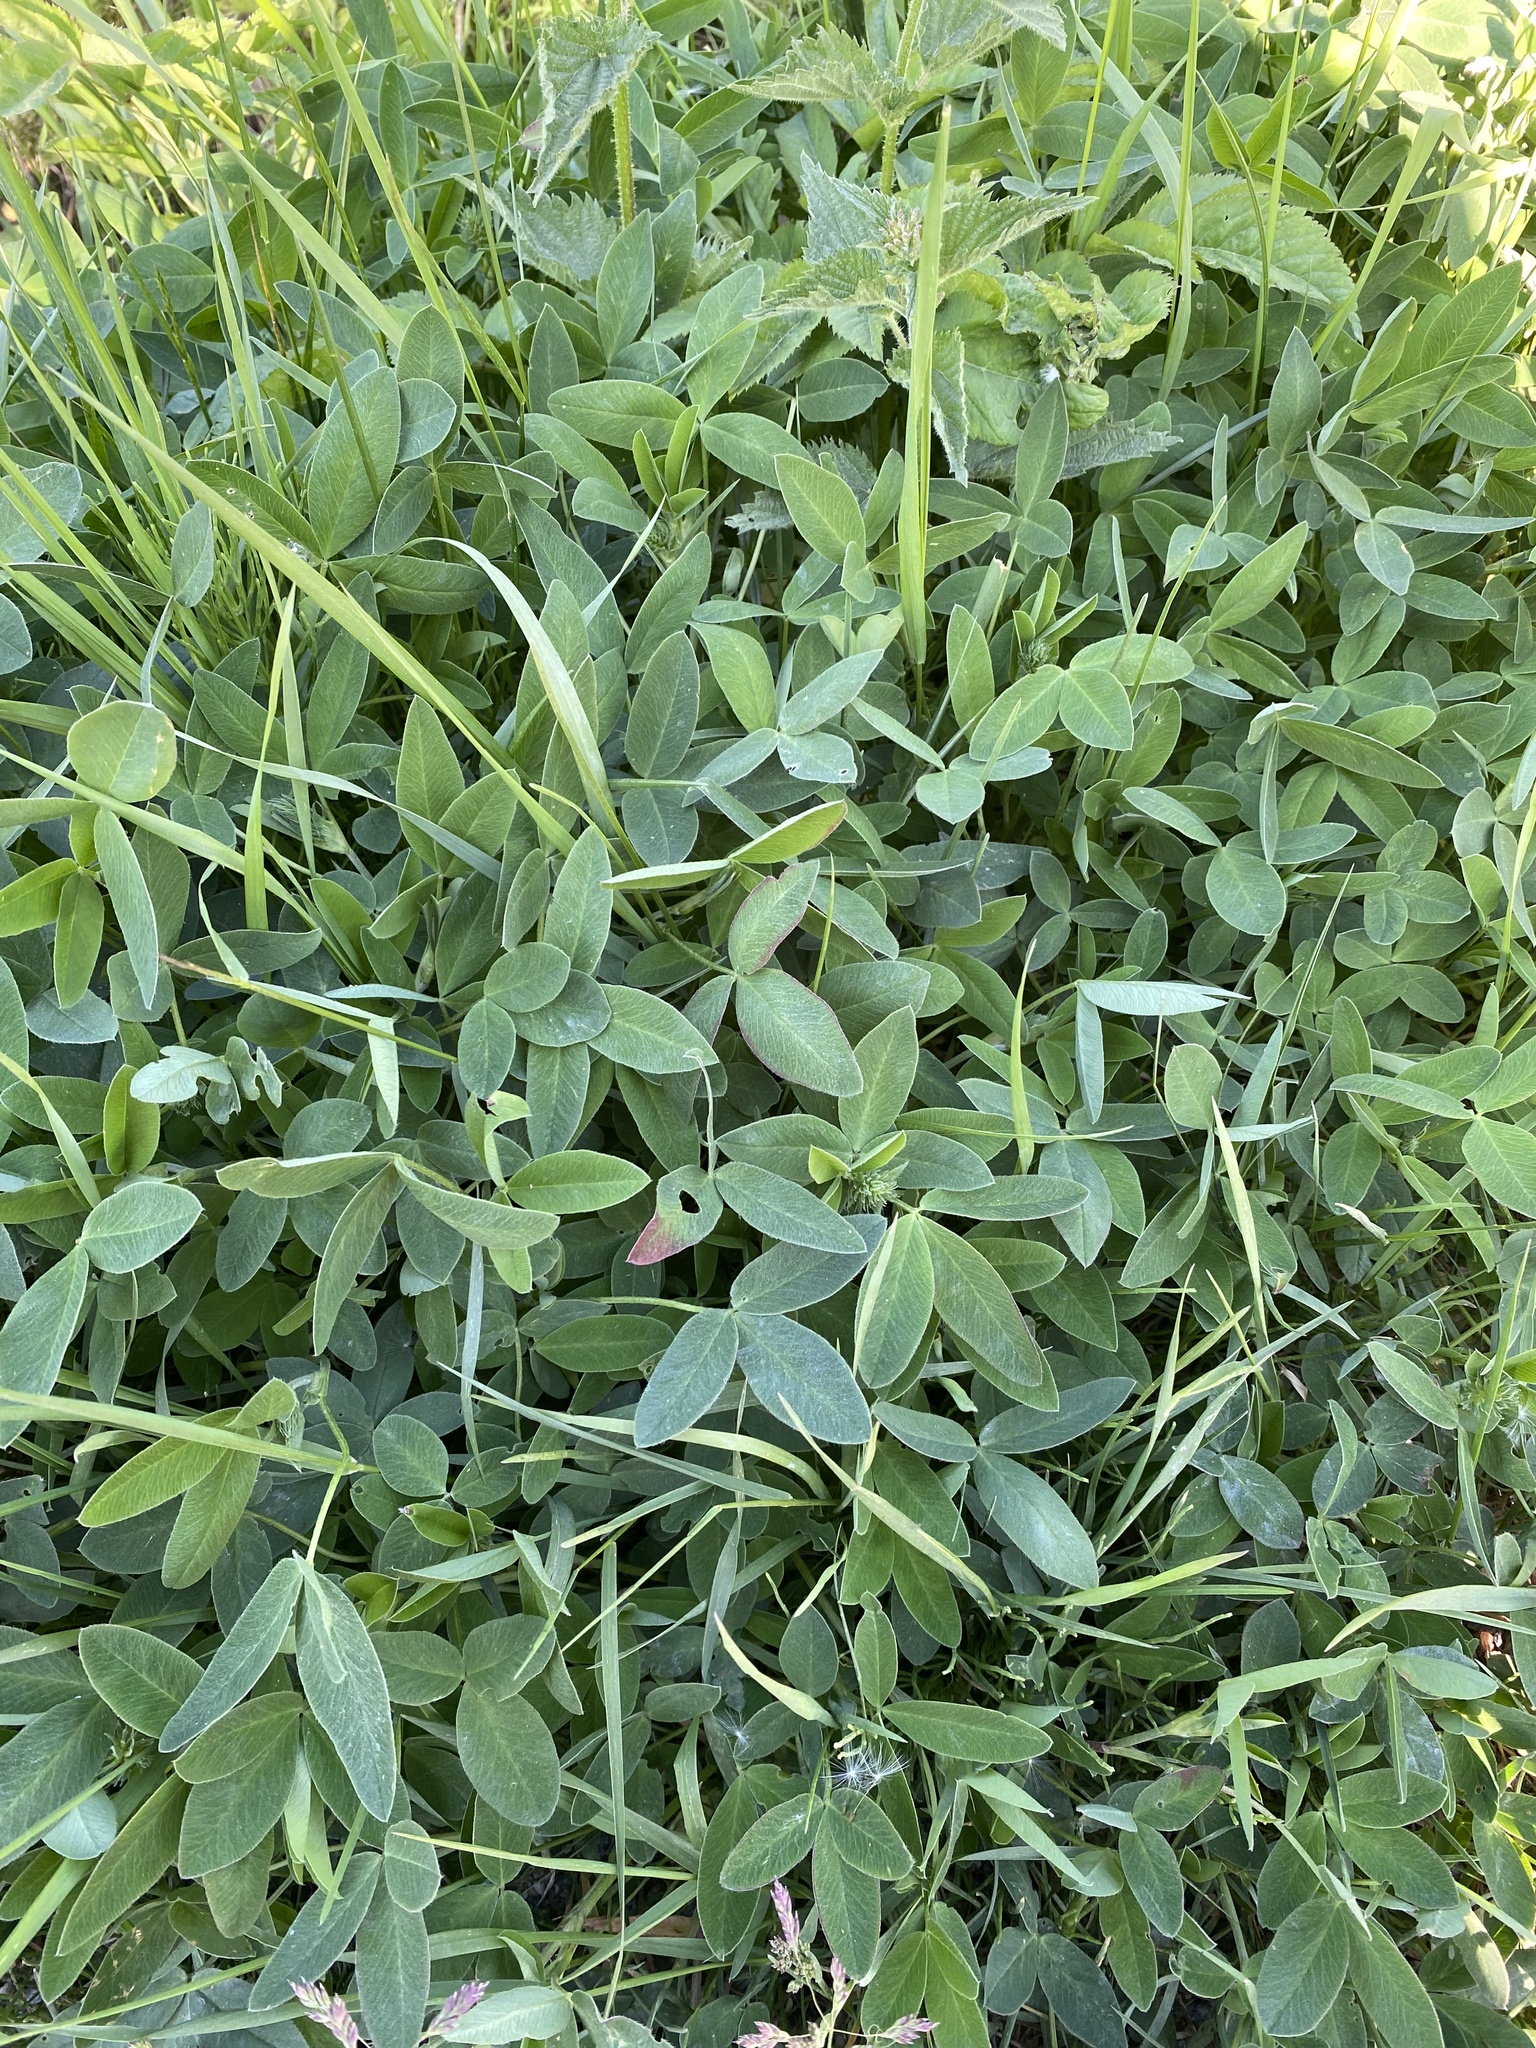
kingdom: Plantae
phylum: Tracheophyta
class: Magnoliopsida
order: Fabales
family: Fabaceae
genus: Trifolium
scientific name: Trifolium medium
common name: Zigzag clover
